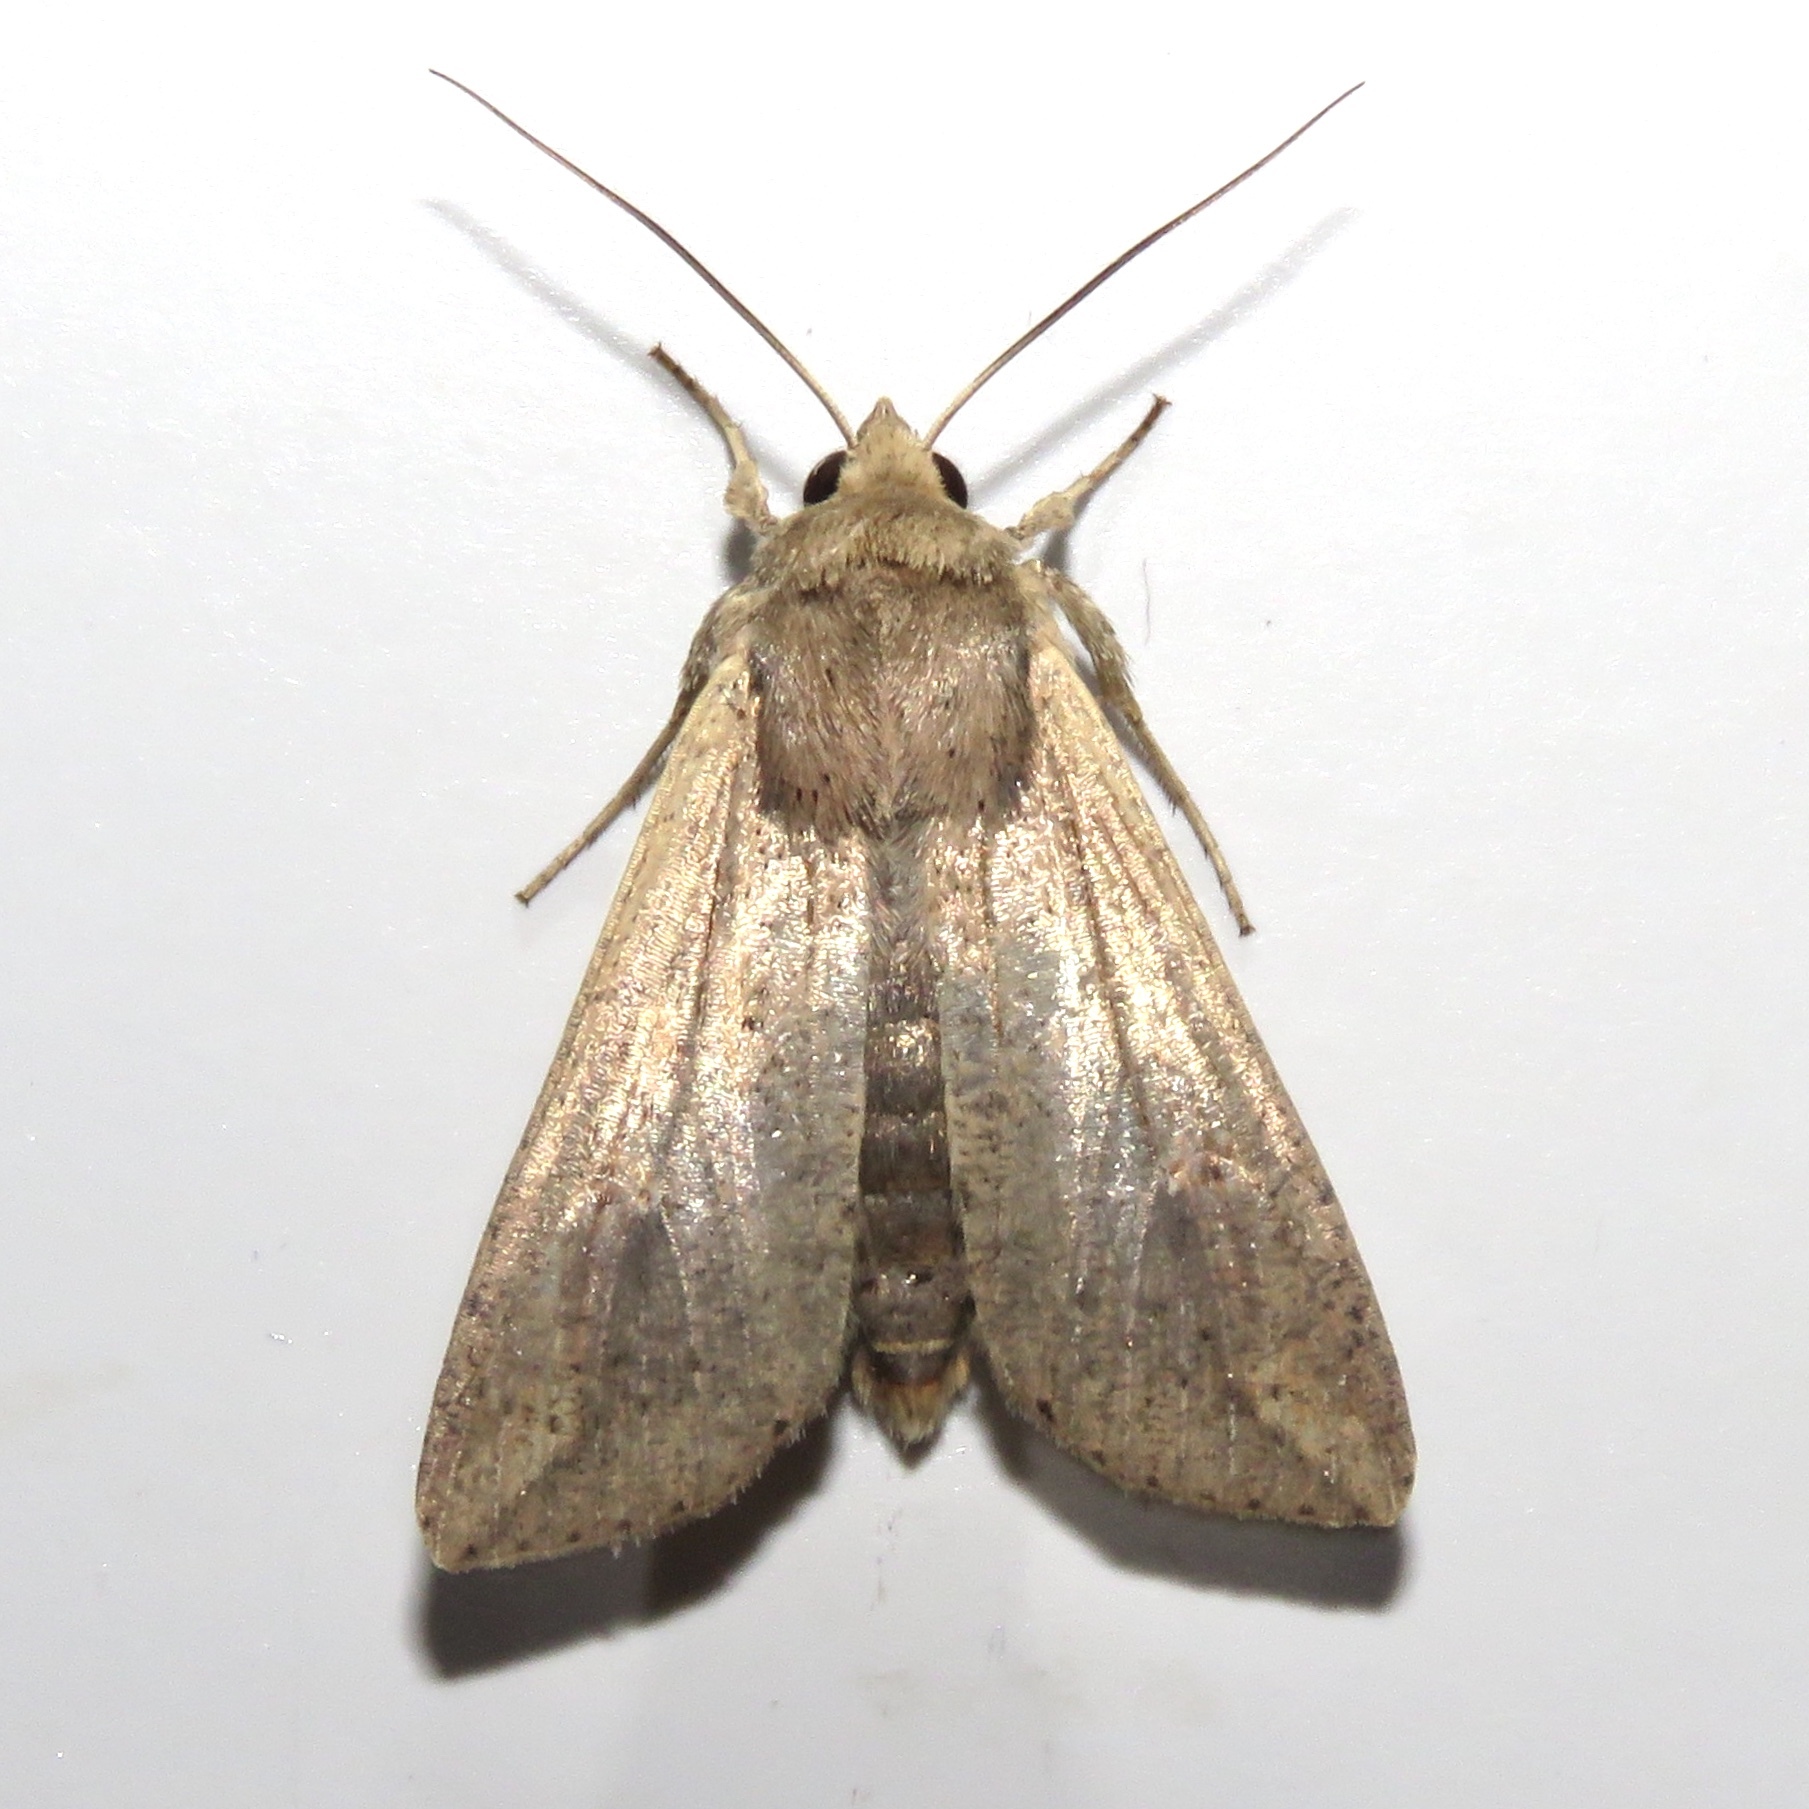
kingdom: Animalia
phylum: Arthropoda
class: Insecta
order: Lepidoptera
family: Noctuidae
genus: Mythimna
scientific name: Mythimna unipuncta
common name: White-speck
